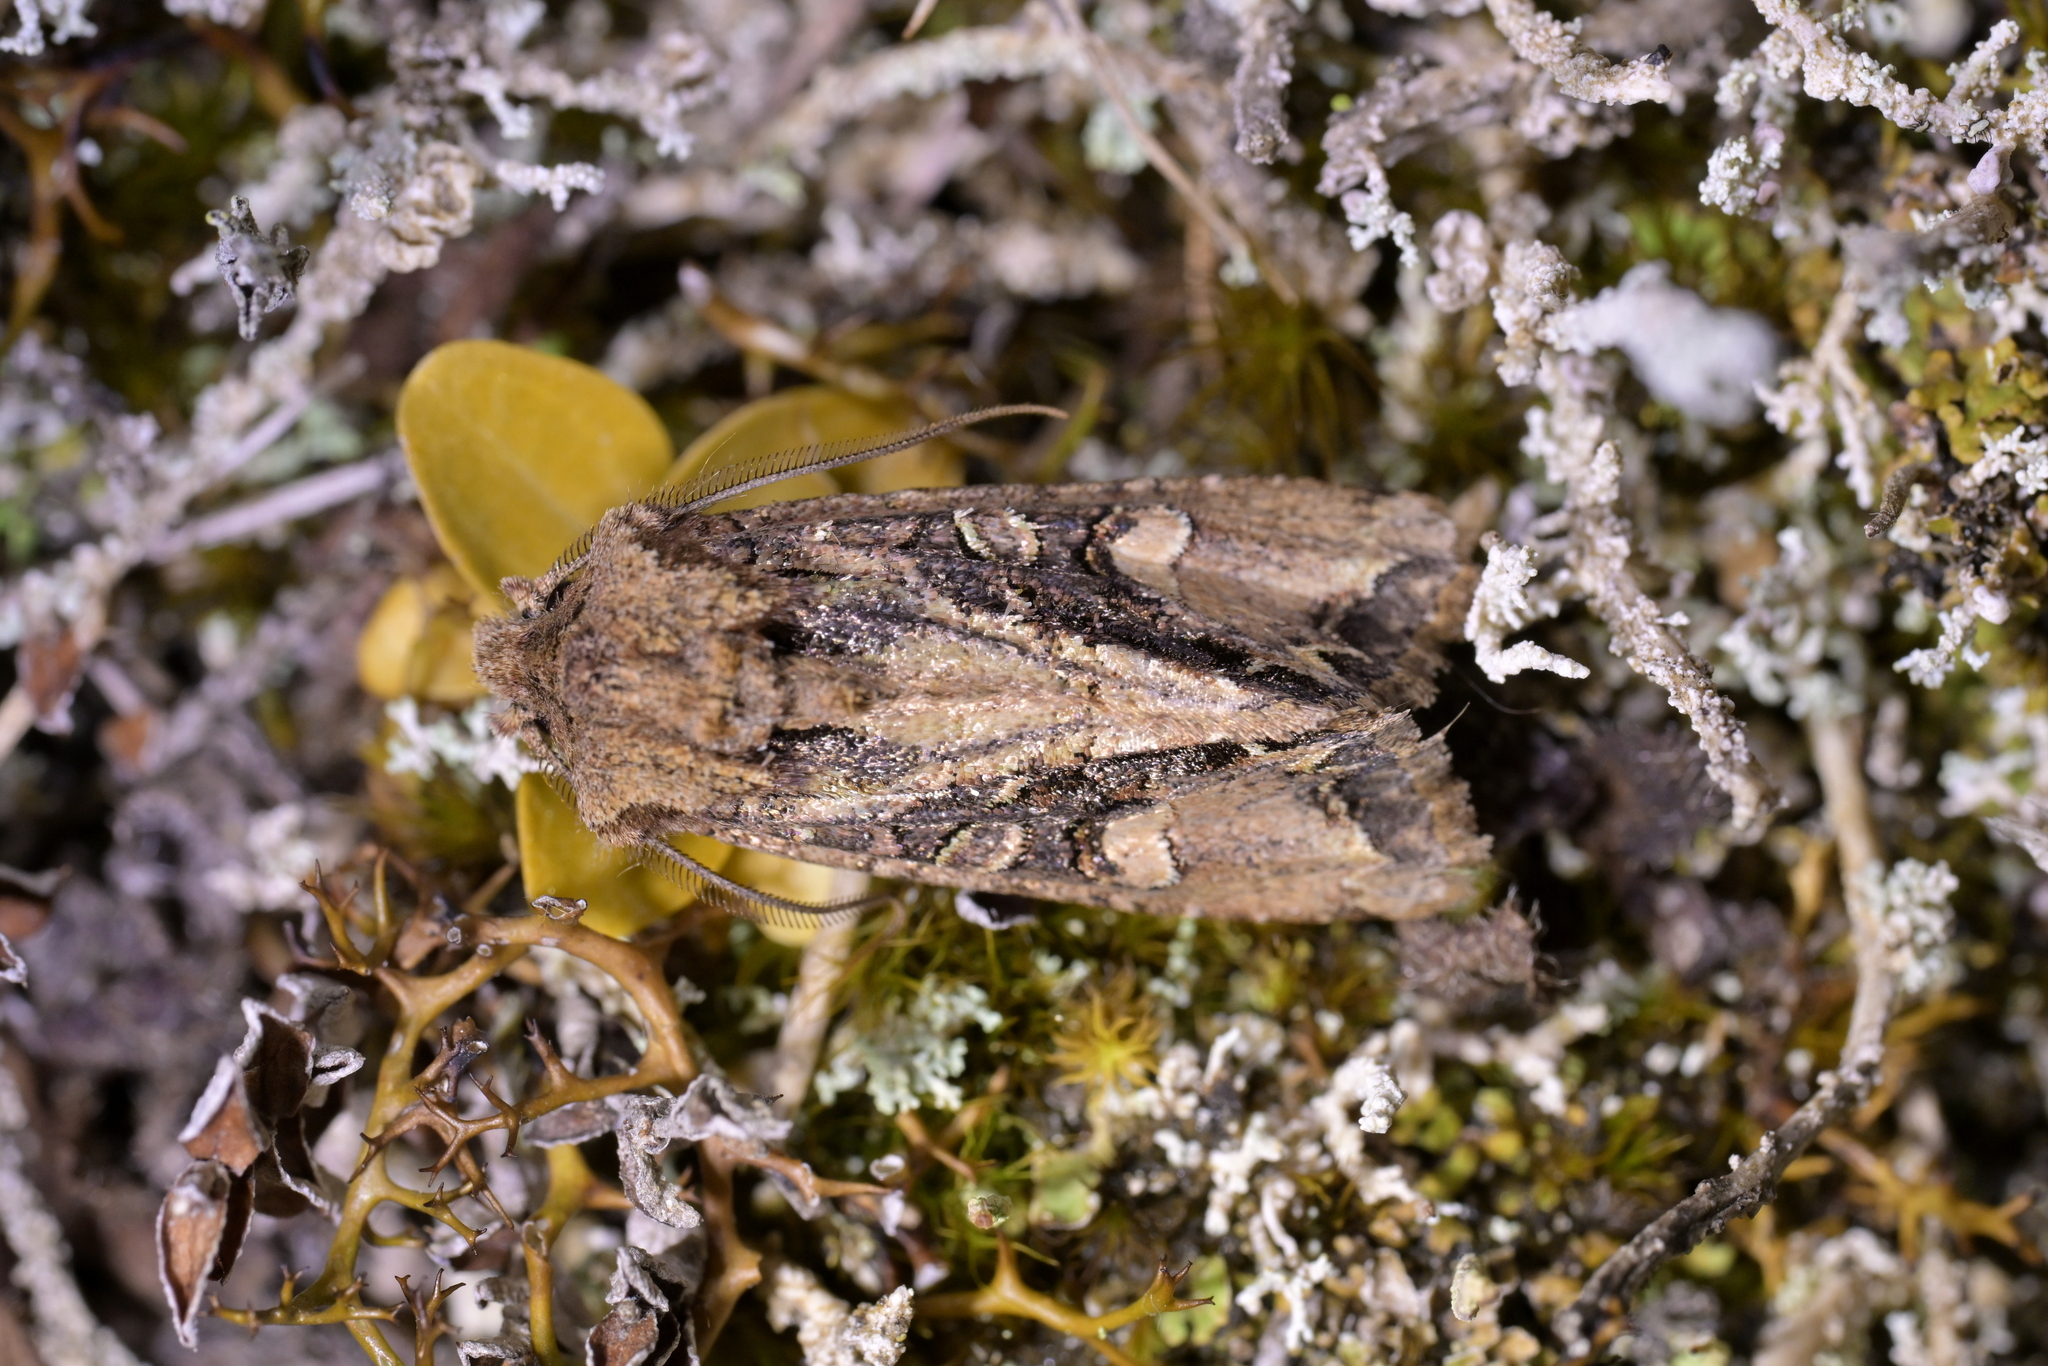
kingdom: Animalia
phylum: Arthropoda
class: Insecta
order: Lepidoptera
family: Noctuidae
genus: Ichneutica
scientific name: Ichneutica insignis
